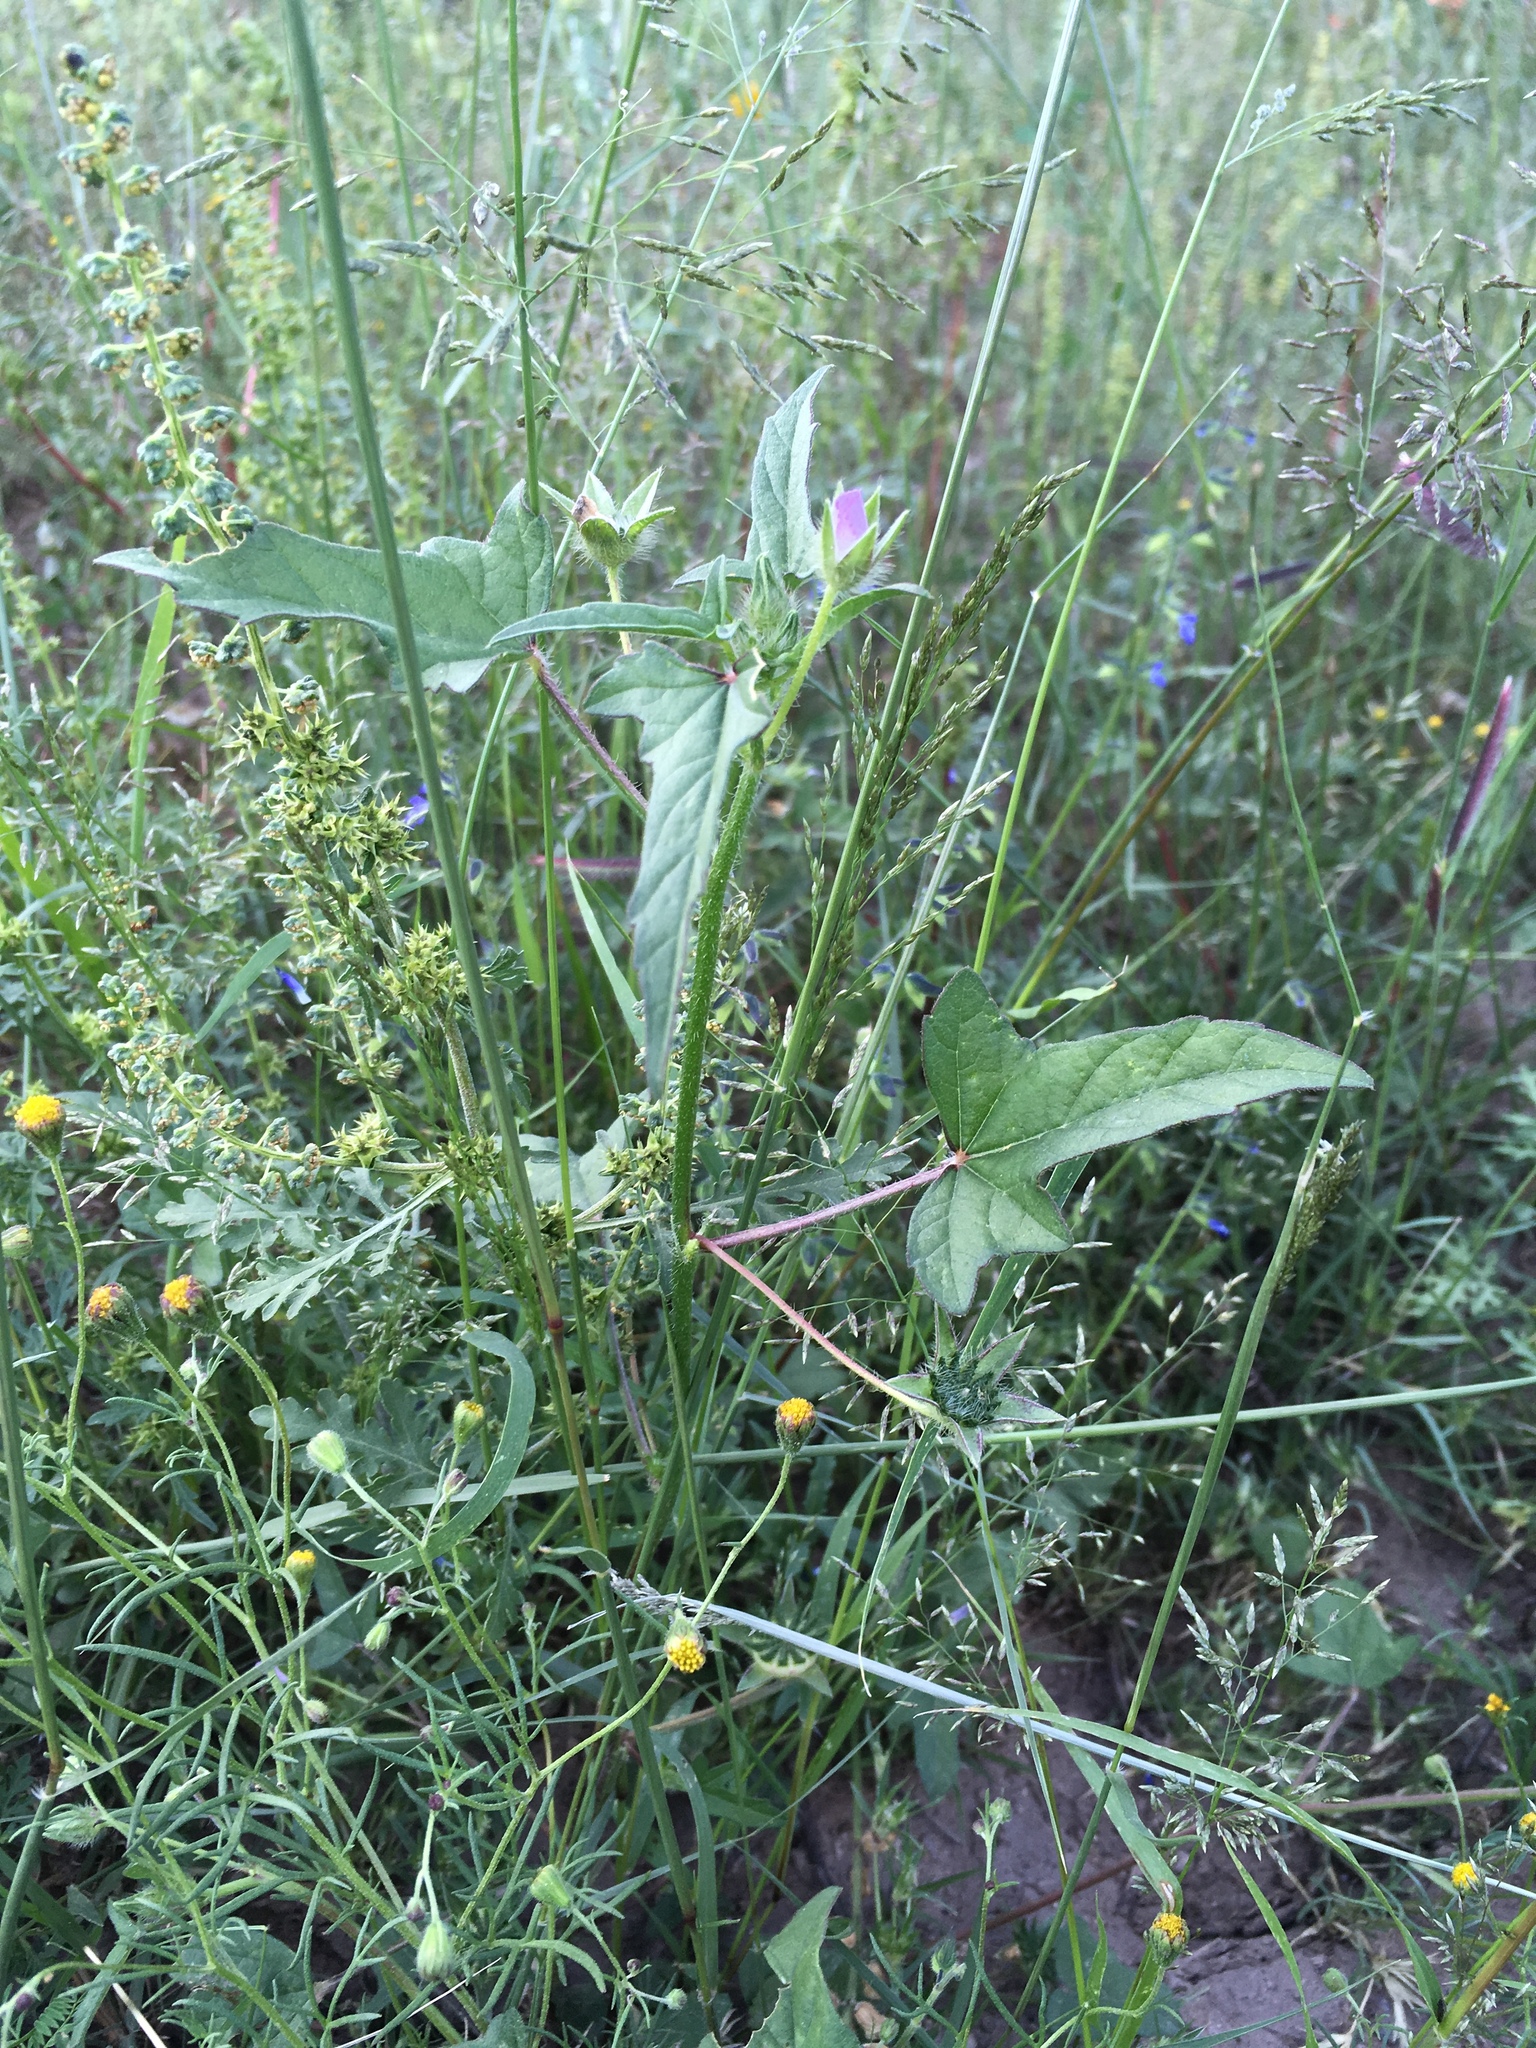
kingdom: Plantae
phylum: Tracheophyta
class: Magnoliopsida
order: Malvales
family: Malvaceae
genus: Anoda
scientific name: Anoda cristata
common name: Spurred anoda
